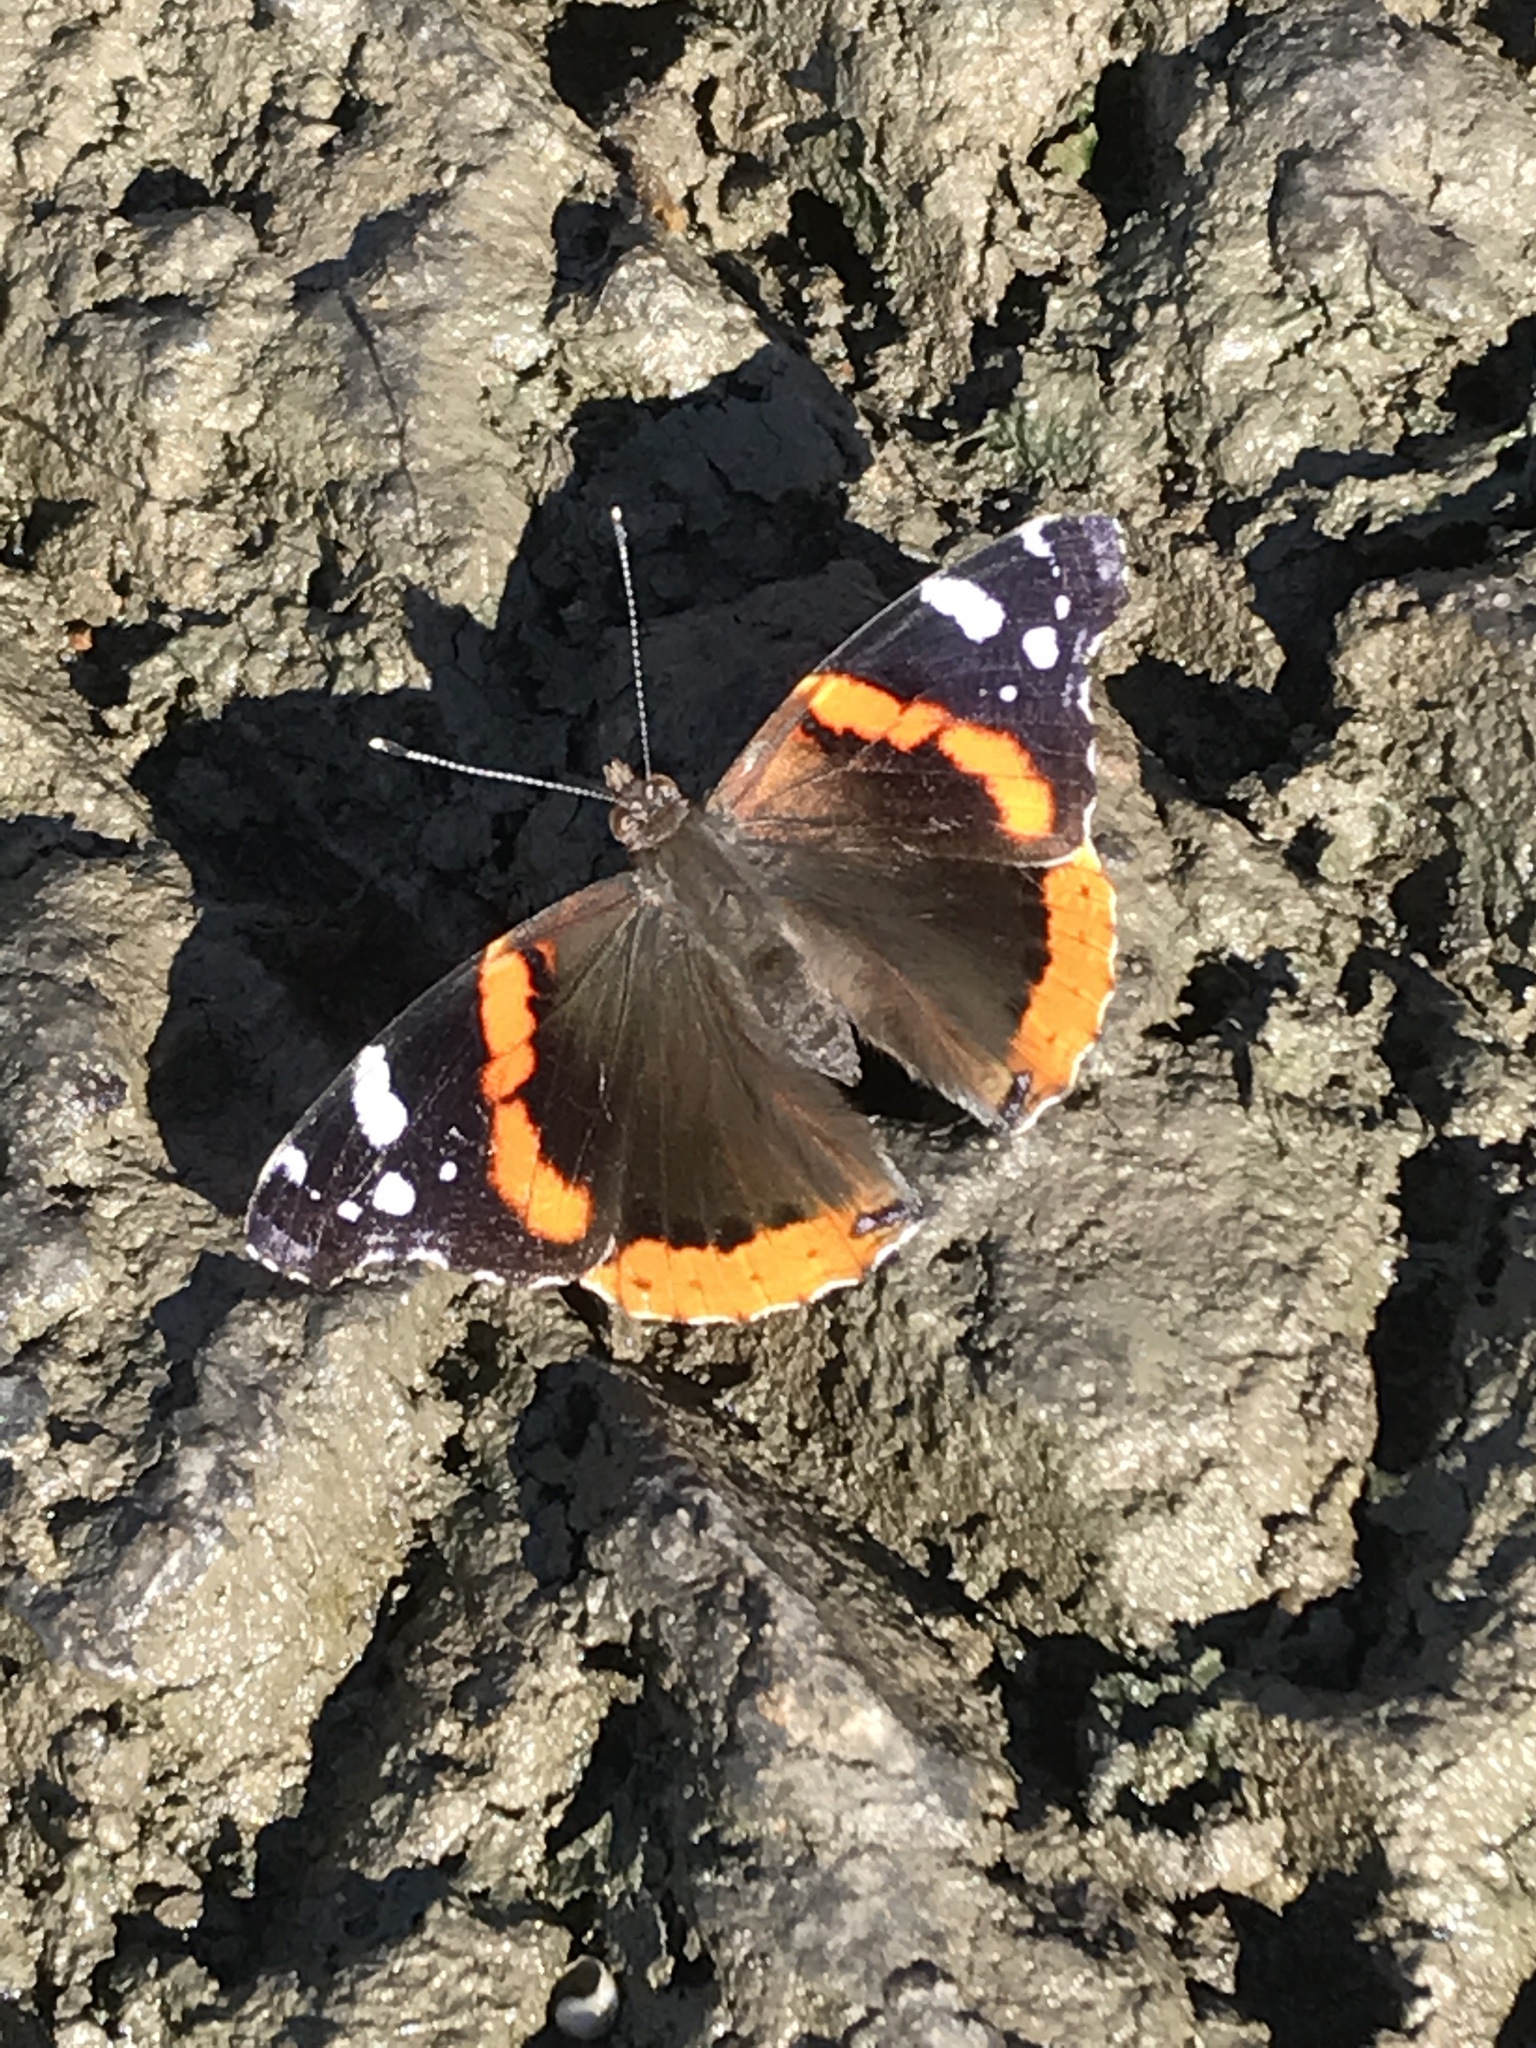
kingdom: Animalia
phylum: Arthropoda
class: Insecta
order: Lepidoptera
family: Nymphalidae
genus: Vanessa
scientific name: Vanessa atalanta
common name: Red admiral
